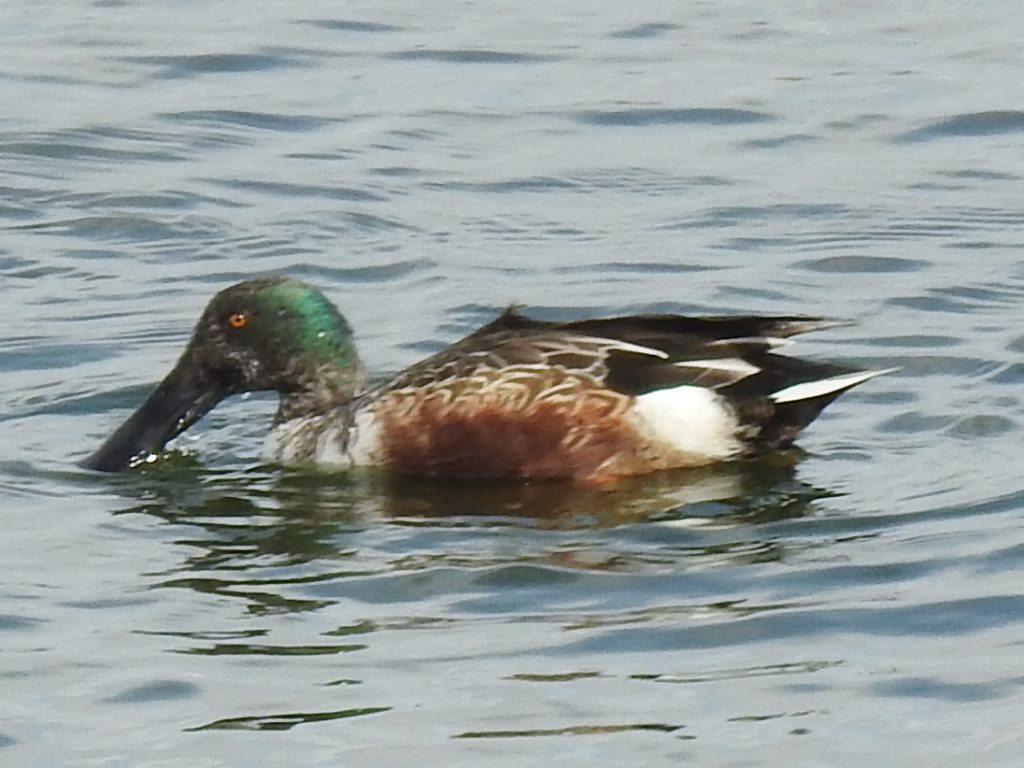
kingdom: Animalia
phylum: Chordata
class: Aves
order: Anseriformes
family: Anatidae
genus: Spatula
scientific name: Spatula clypeata
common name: Northern shoveler
